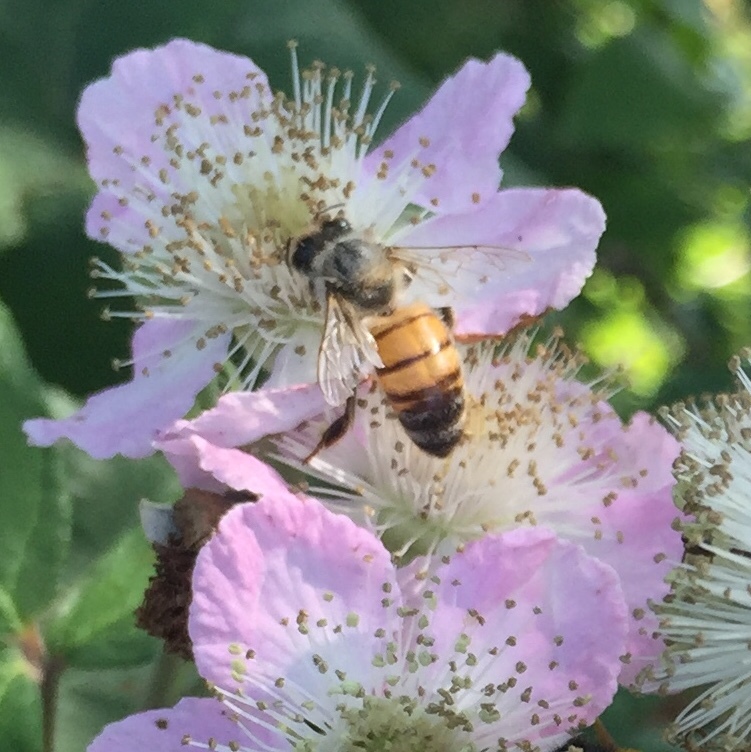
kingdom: Animalia
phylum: Arthropoda
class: Insecta
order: Hymenoptera
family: Apidae
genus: Apis
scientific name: Apis mellifera
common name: Honey bee
